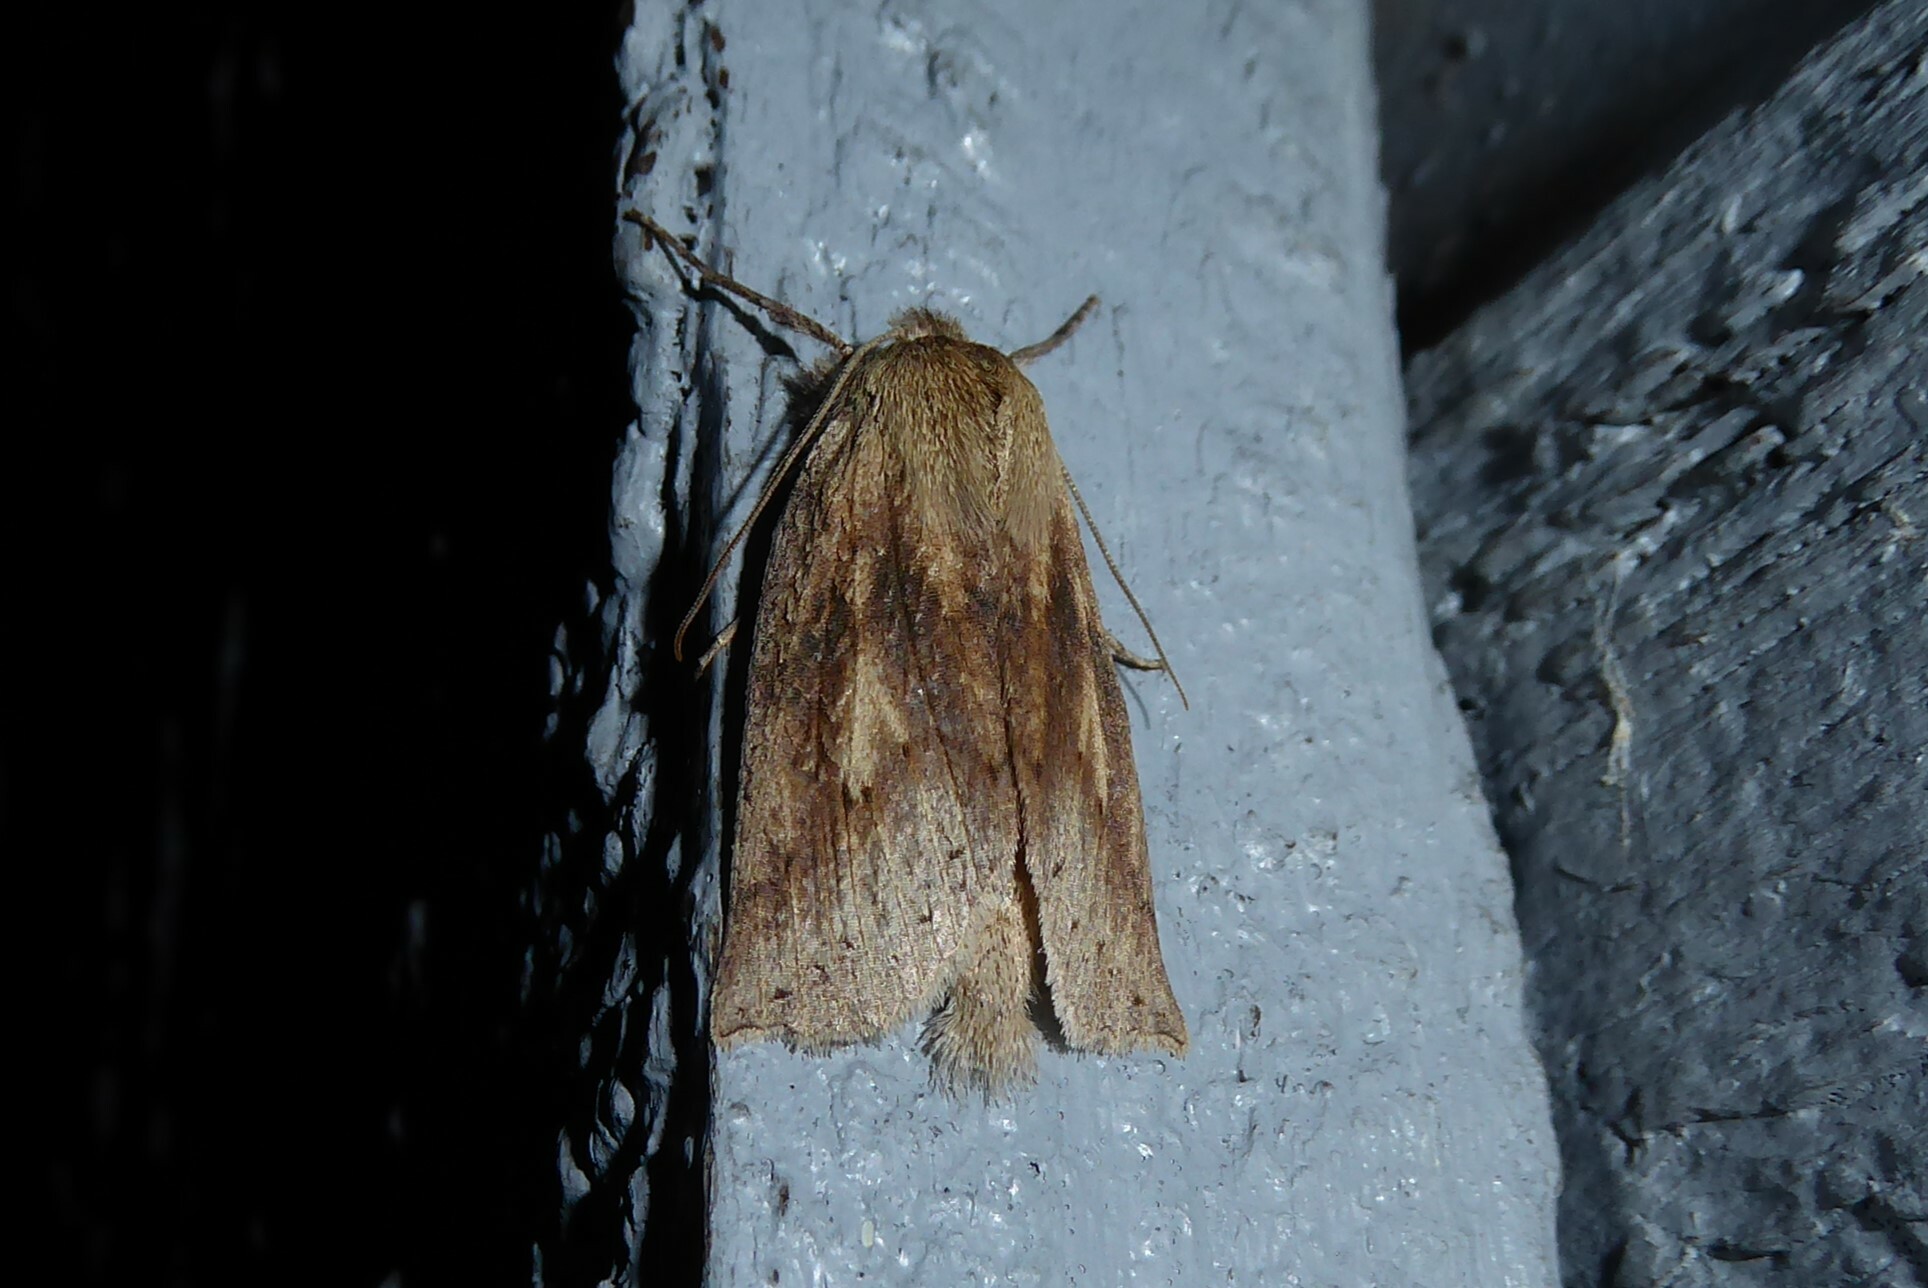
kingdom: Animalia
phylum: Arthropoda
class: Insecta
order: Lepidoptera
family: Geometridae
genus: Declana
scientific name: Declana leptomera
